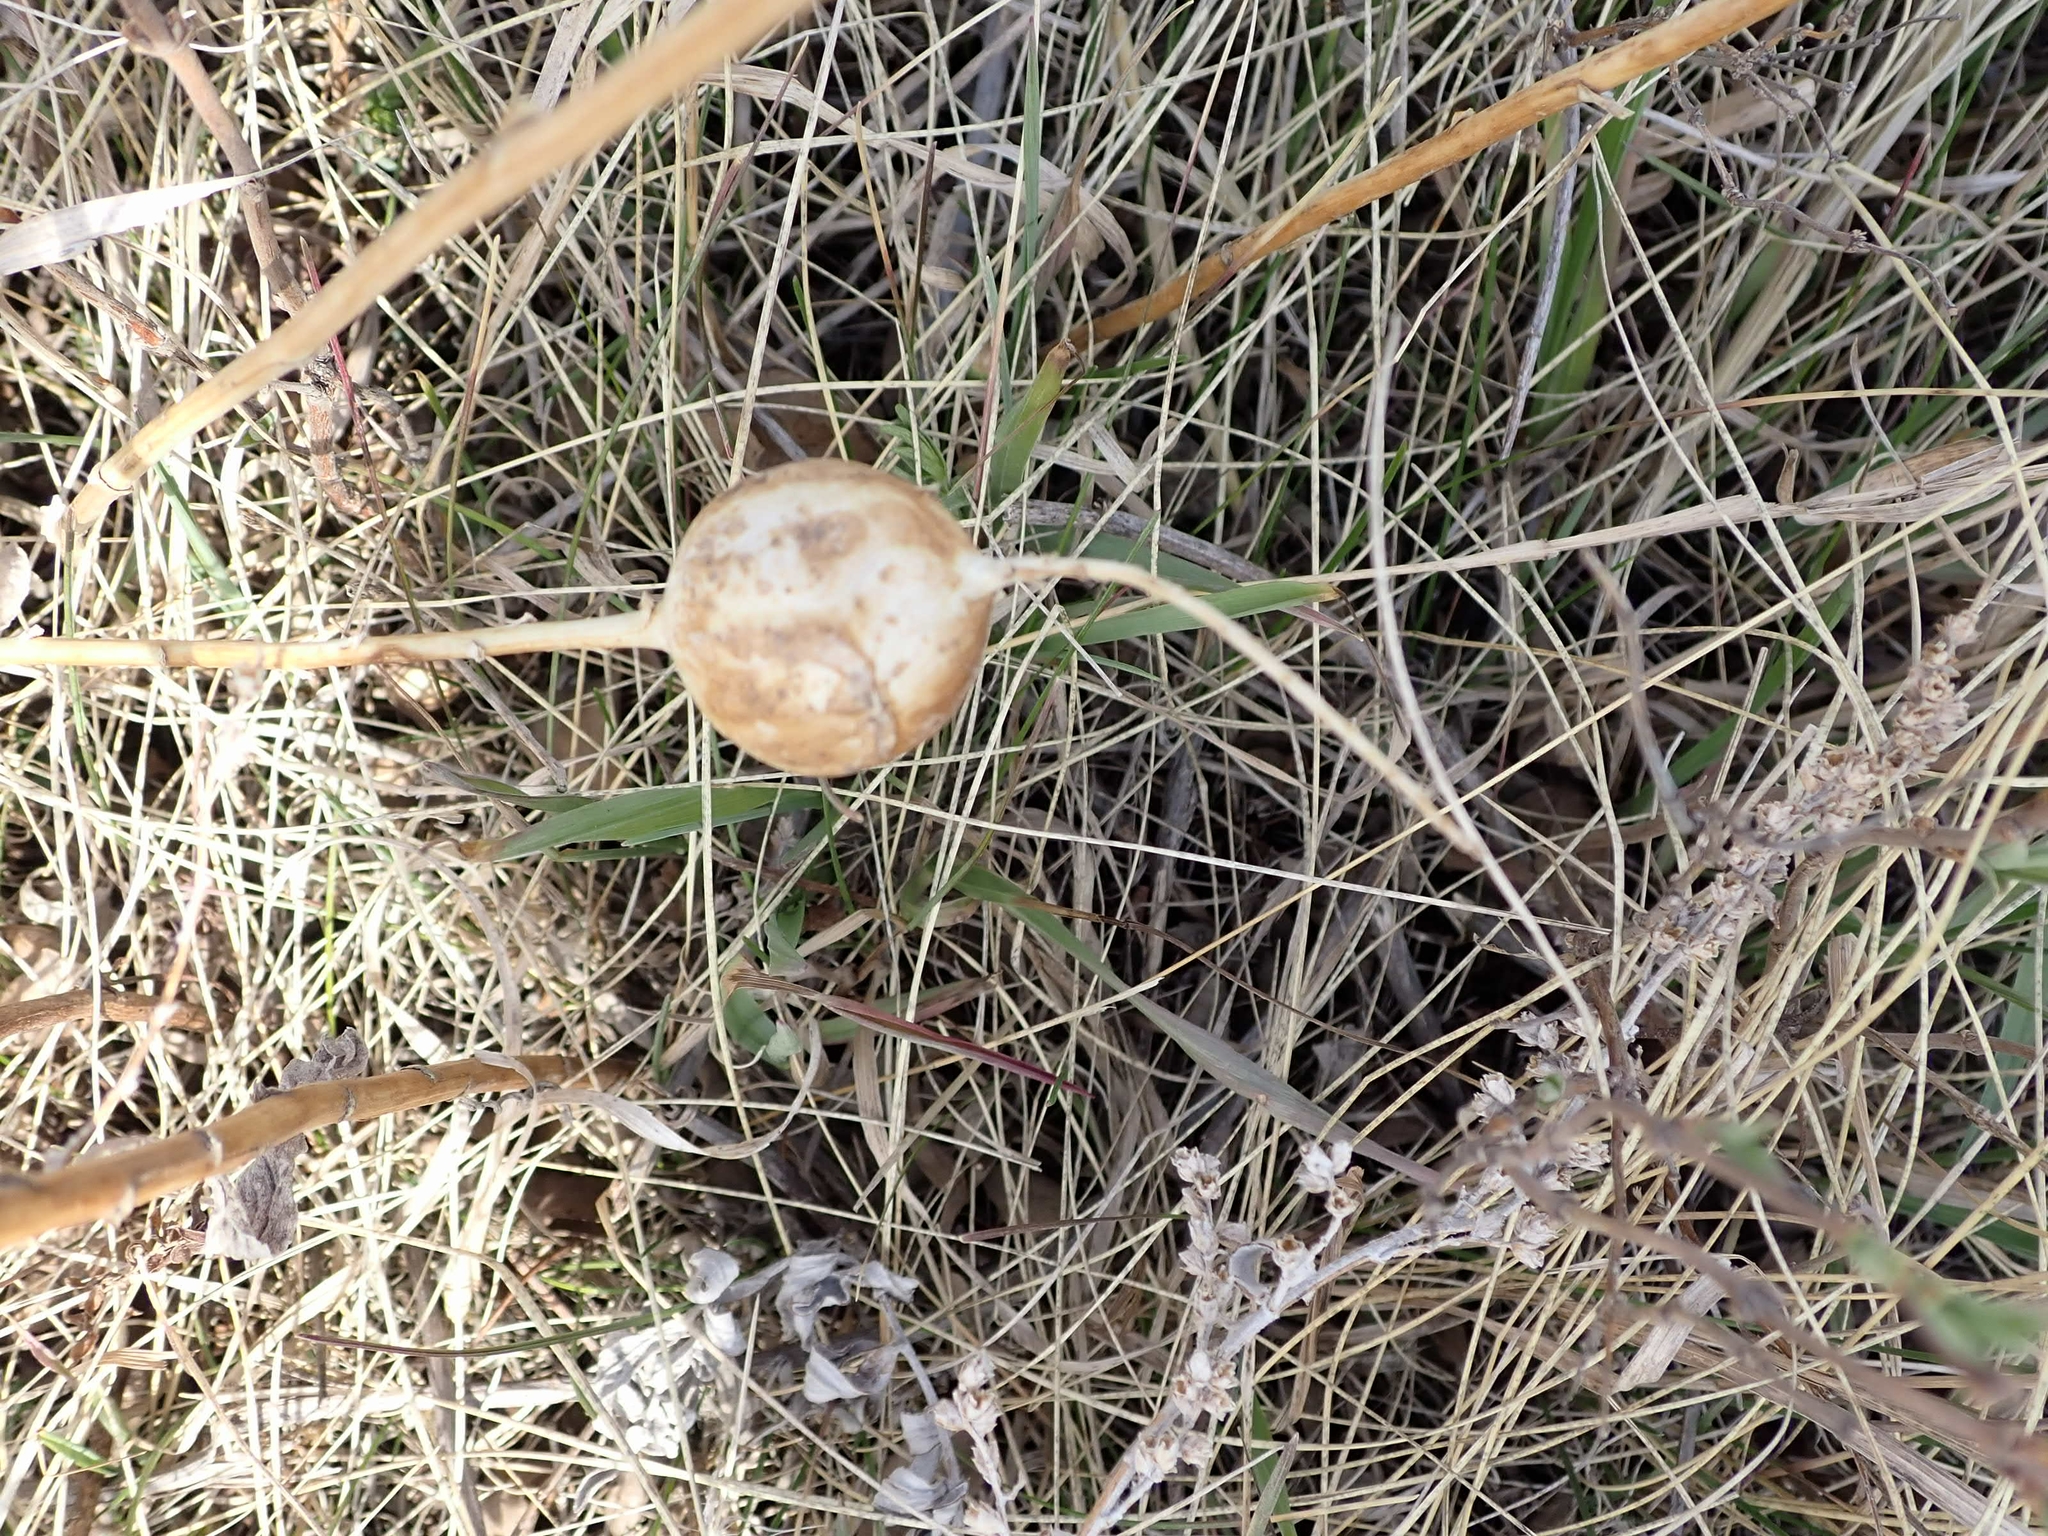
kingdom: Animalia
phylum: Arthropoda
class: Insecta
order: Diptera
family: Tephritidae
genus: Eurosta
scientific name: Eurosta solidaginis
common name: Goldenrod gall fly
